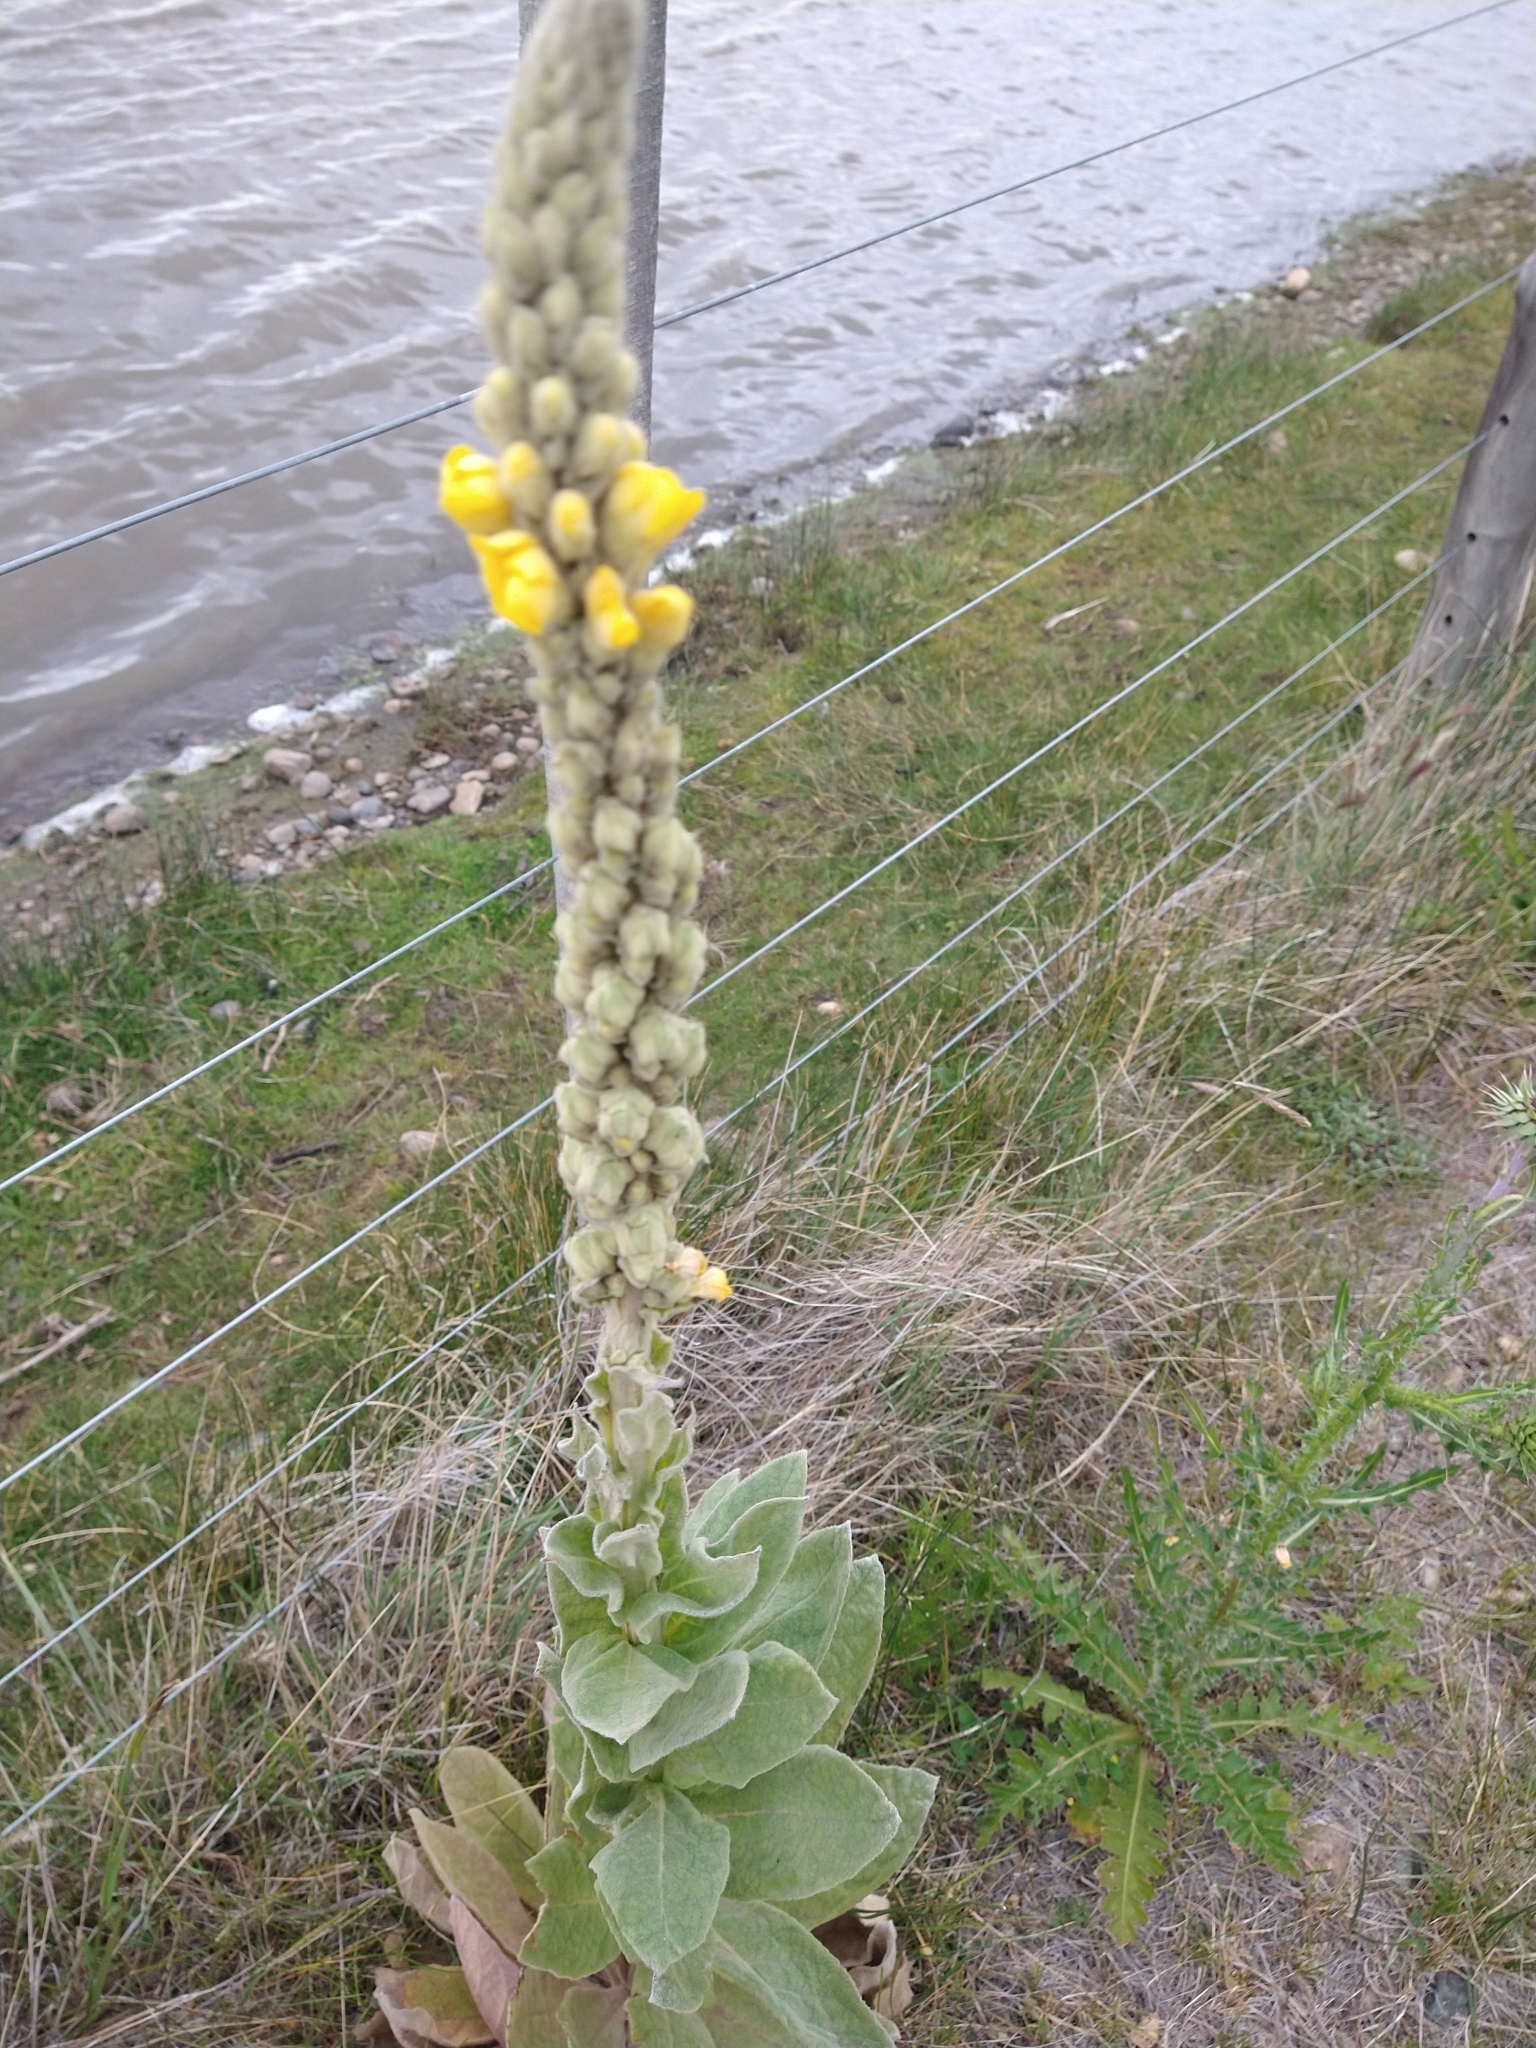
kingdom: Plantae
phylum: Tracheophyta
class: Magnoliopsida
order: Lamiales
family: Scrophulariaceae
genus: Verbascum
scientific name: Verbascum thapsus
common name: Common mullein
